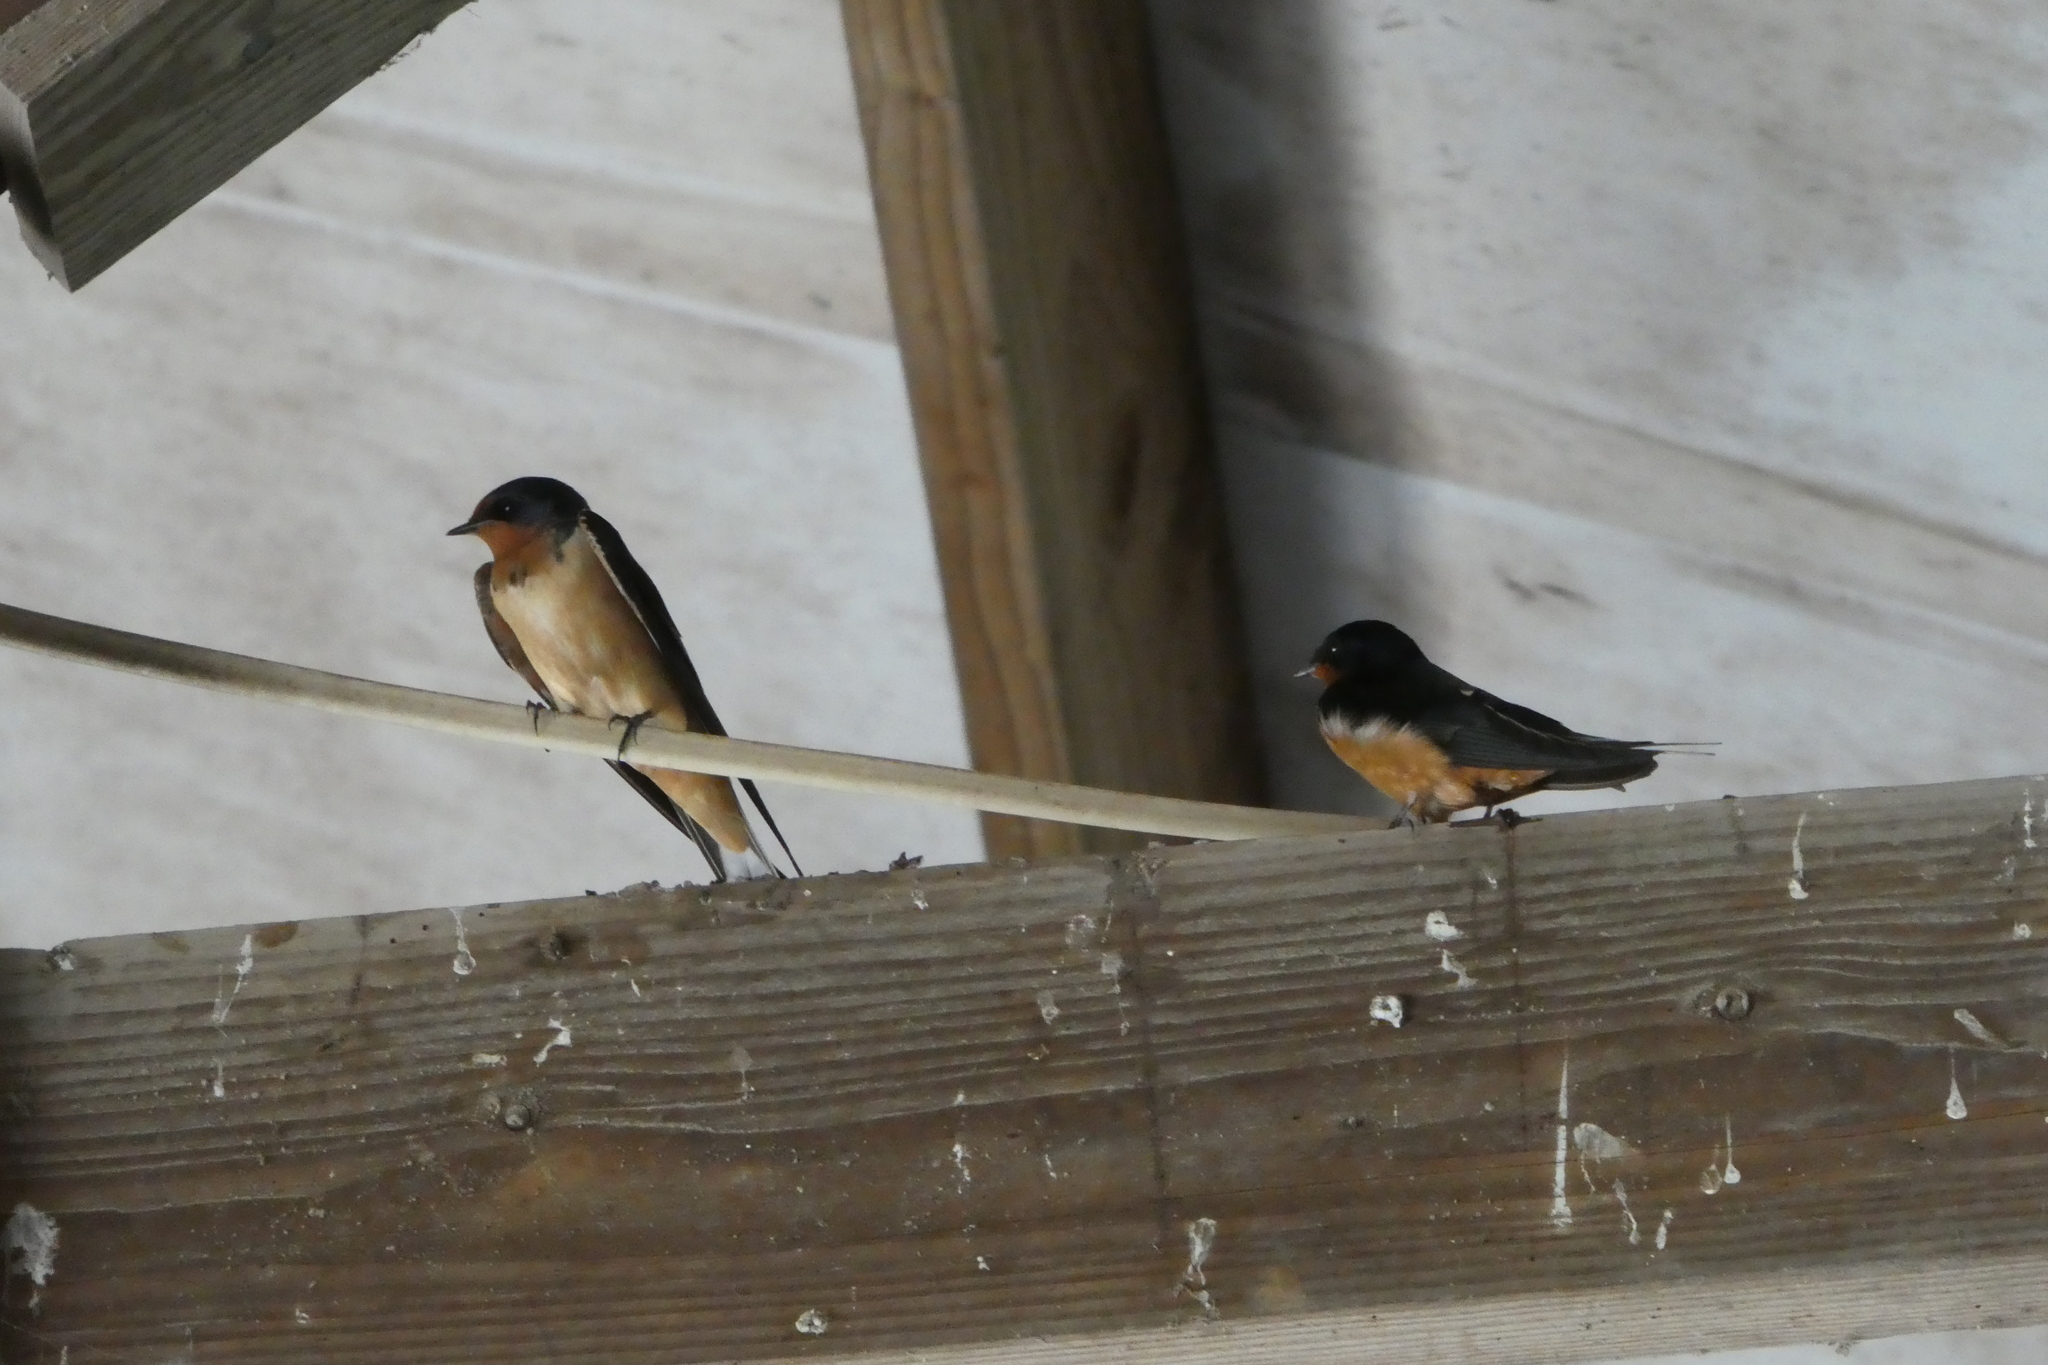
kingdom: Animalia
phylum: Chordata
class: Aves
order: Passeriformes
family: Hirundinidae
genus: Hirundo
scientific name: Hirundo rustica
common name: Barn swallow
